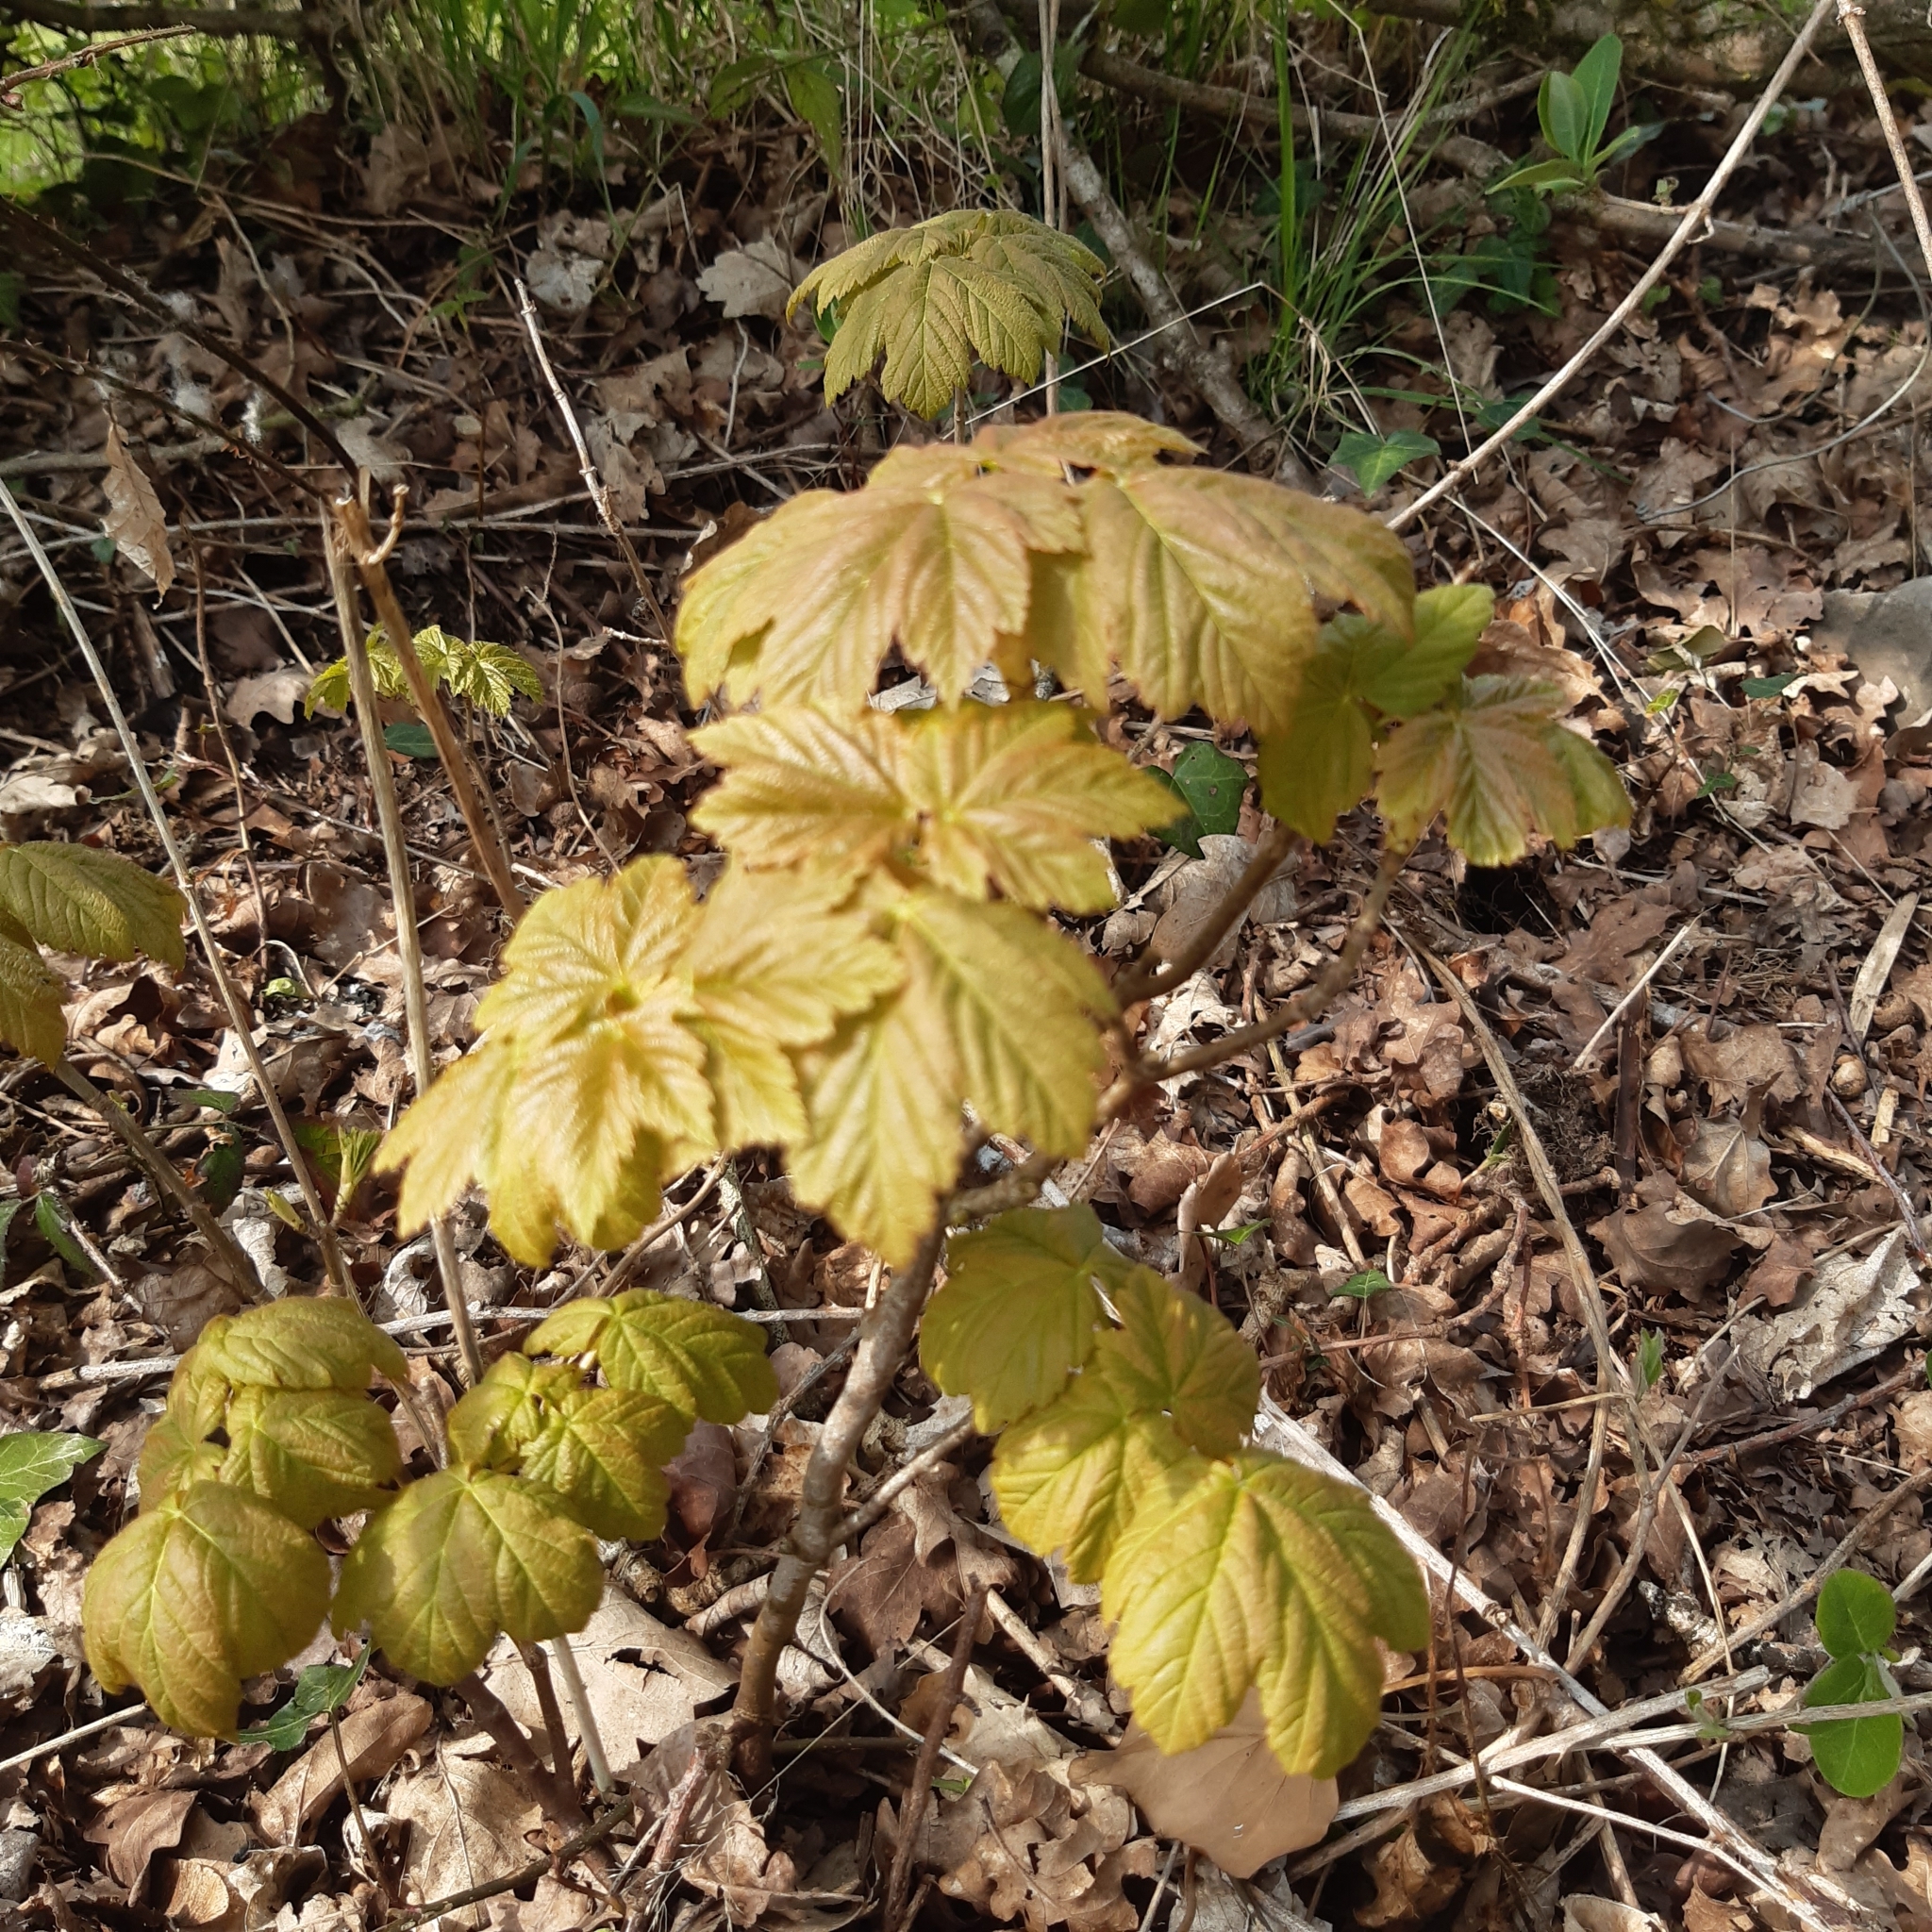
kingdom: Plantae
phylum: Tracheophyta
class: Magnoliopsida
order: Sapindales
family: Sapindaceae
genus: Acer
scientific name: Acer pseudoplatanus
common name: Sycamore
